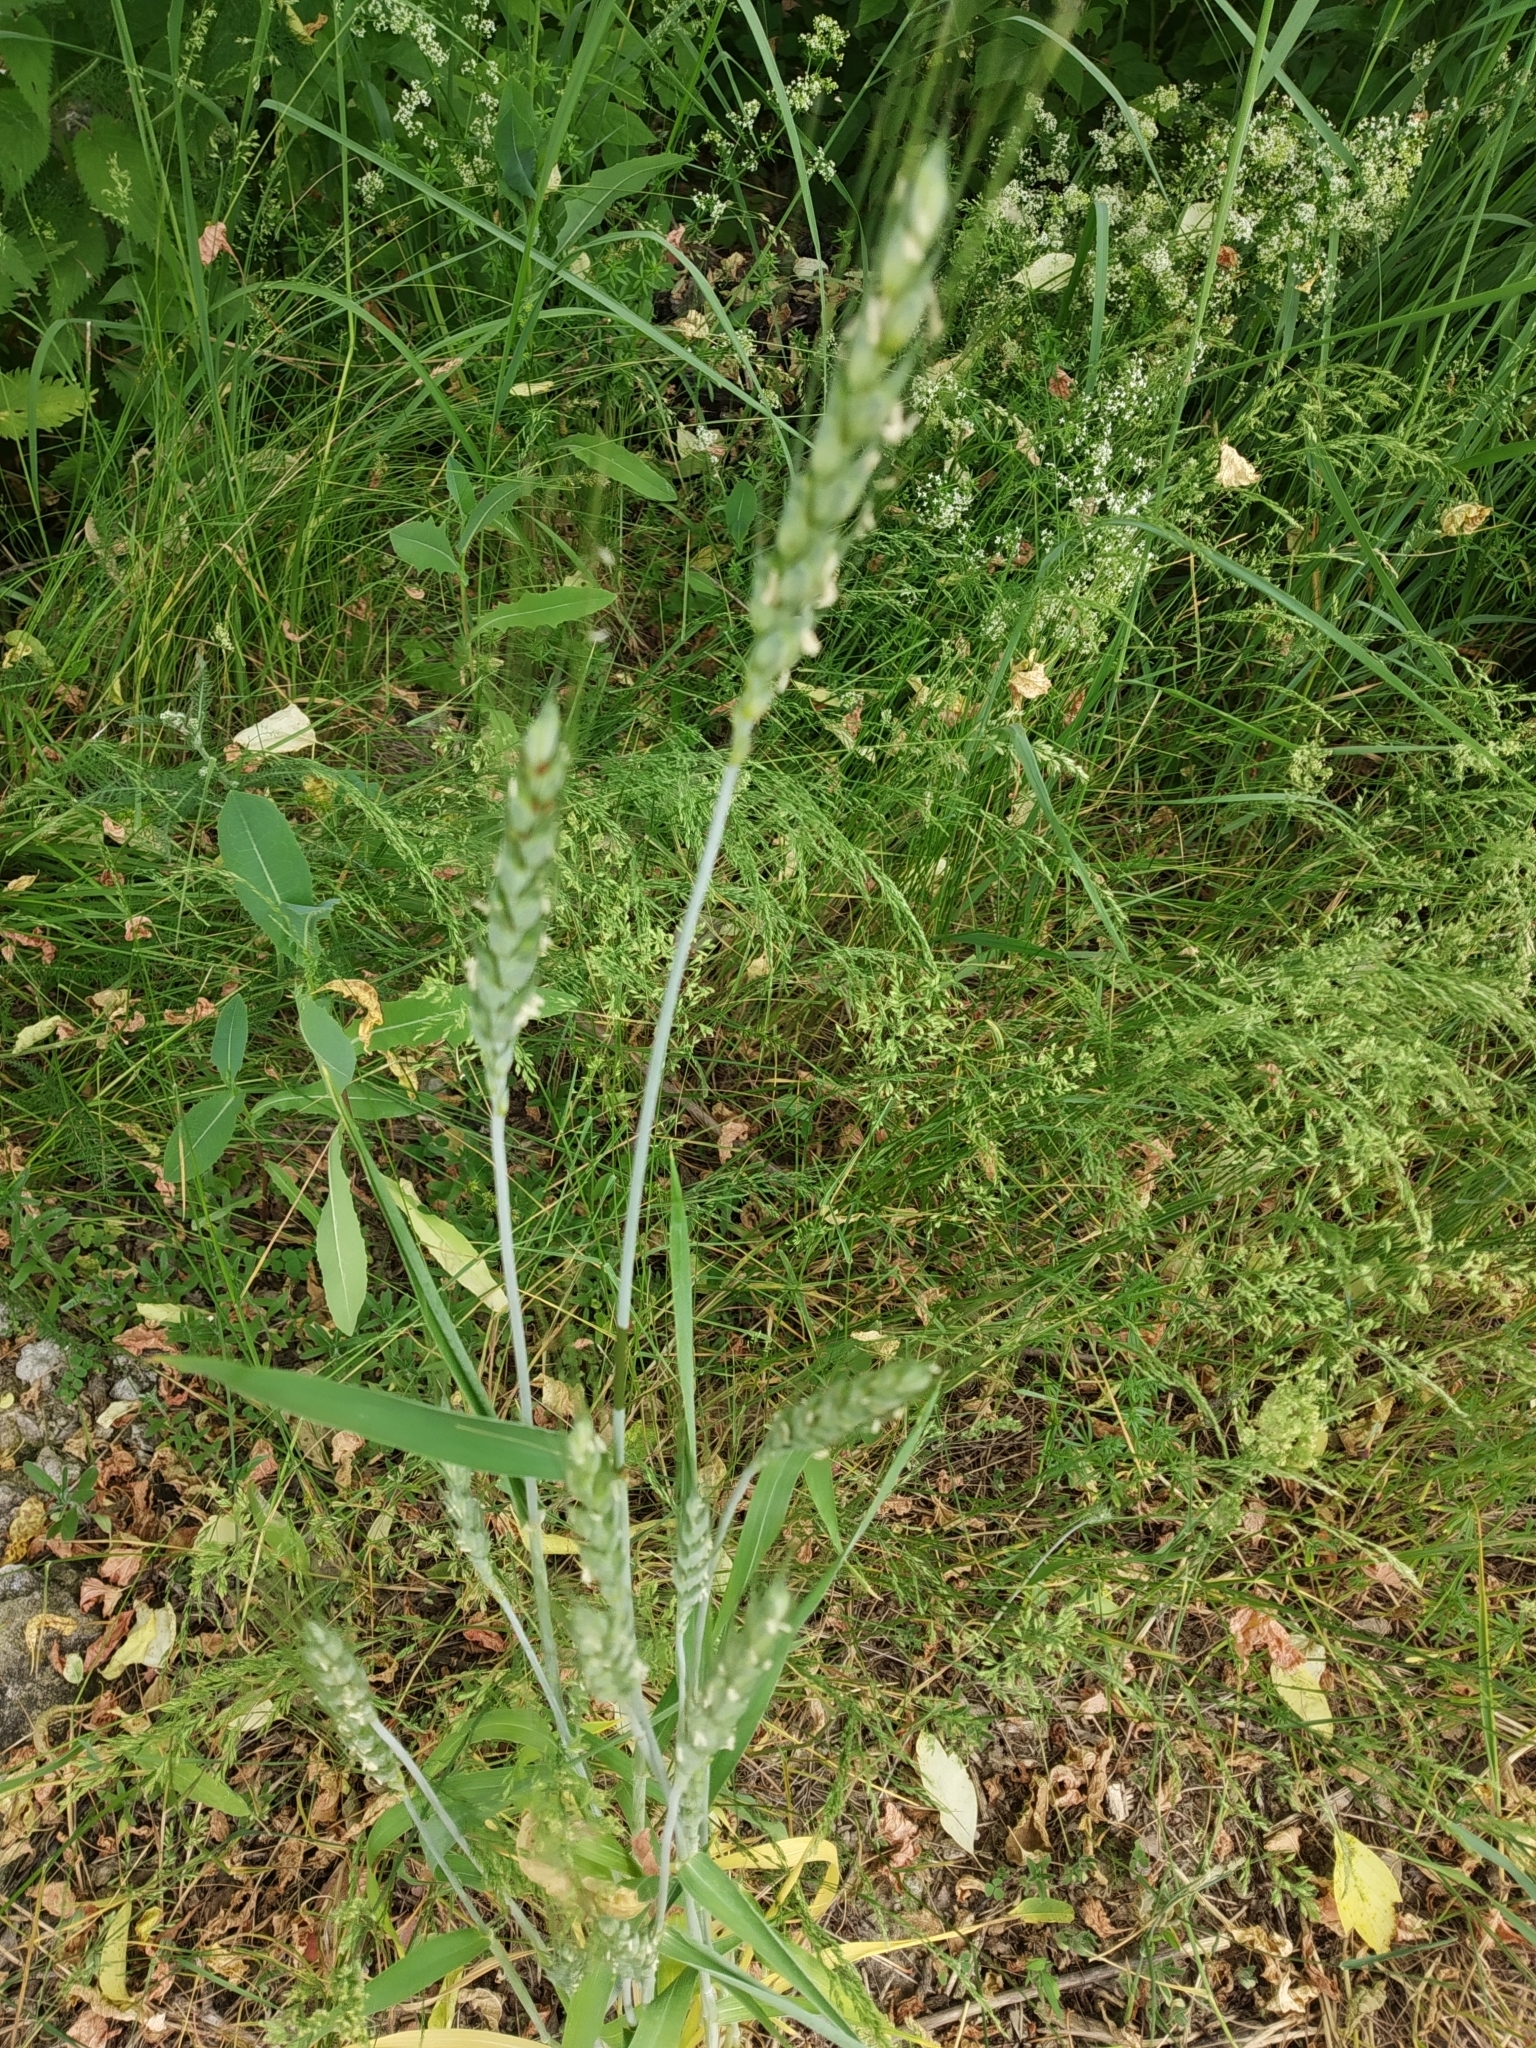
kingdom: Plantae
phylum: Tracheophyta
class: Liliopsida
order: Poales
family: Poaceae
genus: Triticum
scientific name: Triticum aestivum
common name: Common wheat
